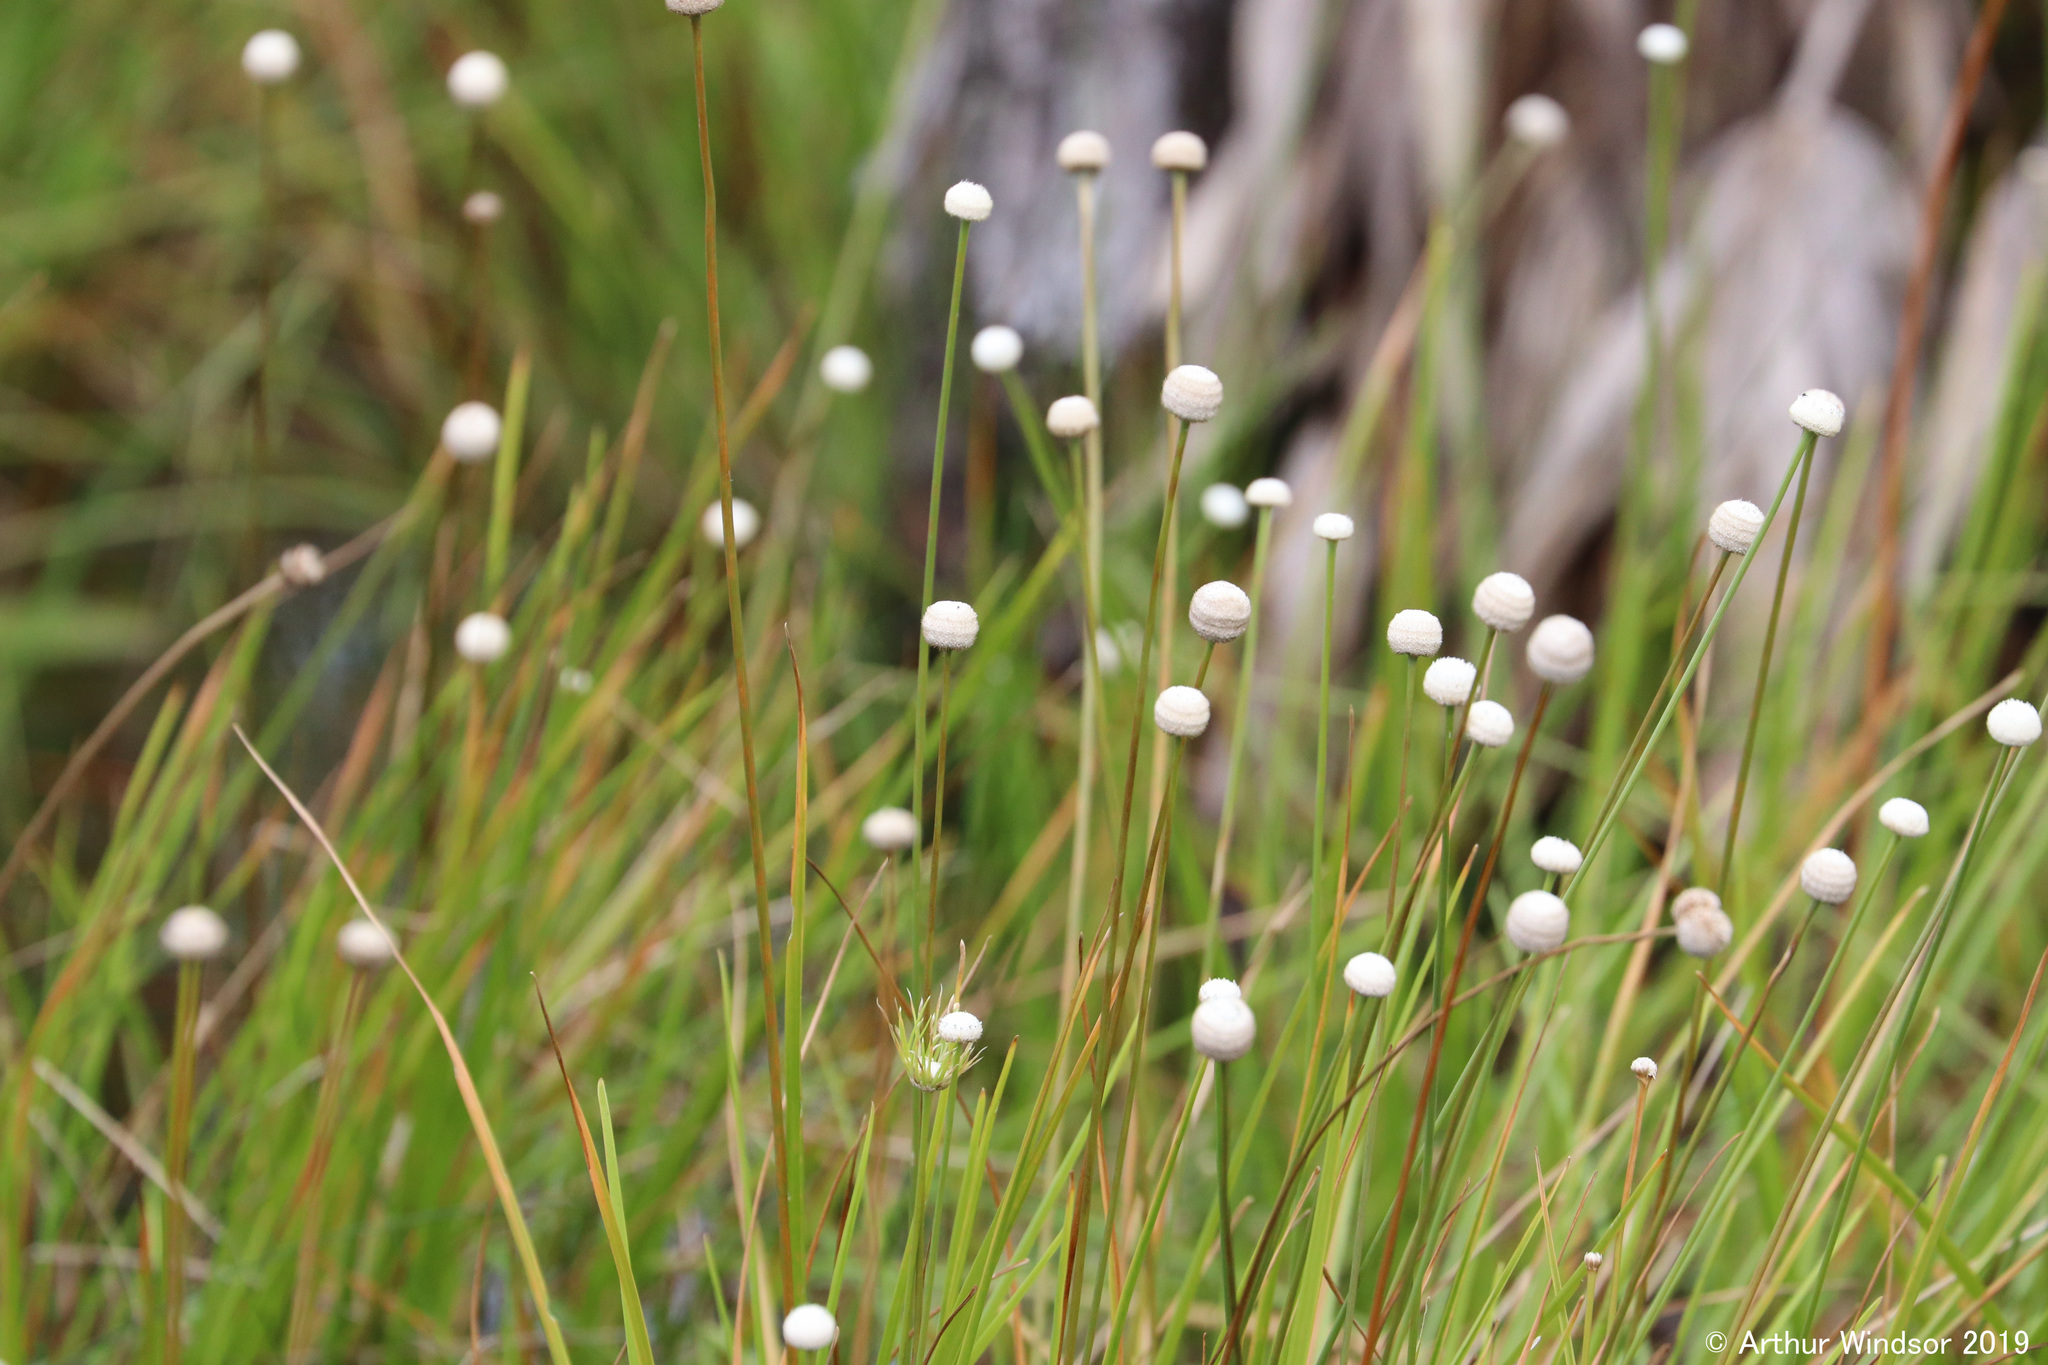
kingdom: Plantae
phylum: Tracheophyta
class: Liliopsida
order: Poales
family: Eriocaulaceae
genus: Eriocaulon
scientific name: Eriocaulon decangulare
